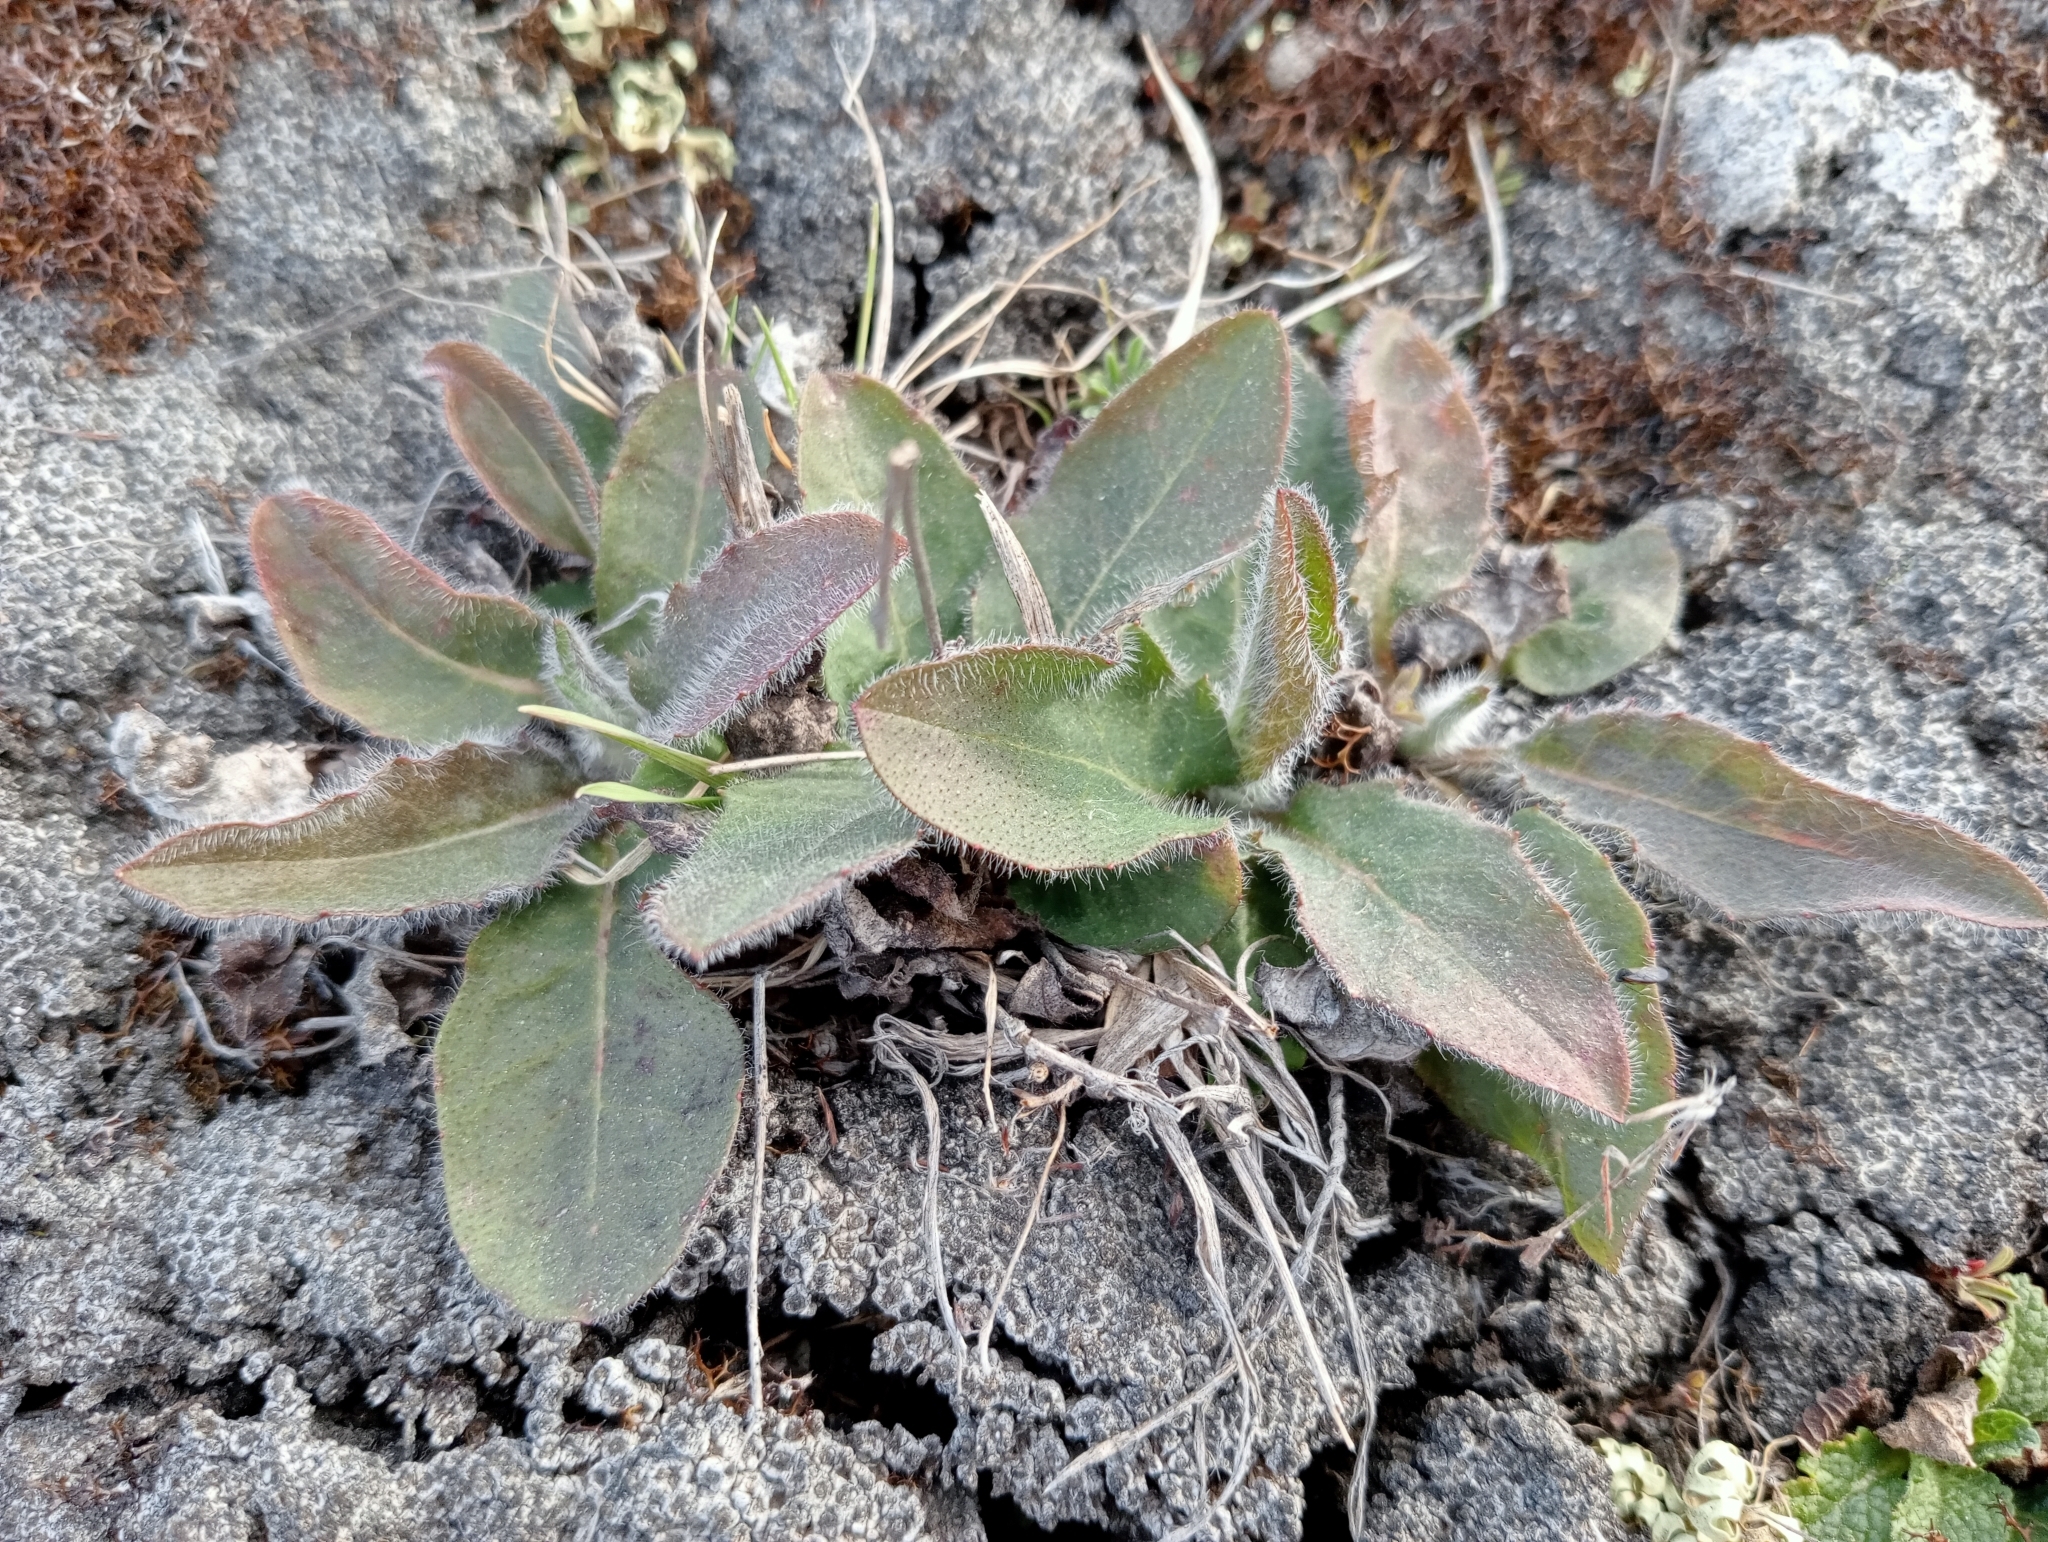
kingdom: Plantae
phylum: Tracheophyta
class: Magnoliopsida
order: Asterales
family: Asteraceae
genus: Hieracium
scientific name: Hieracium lepidulum
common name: Irregular-toothed hawkweed
